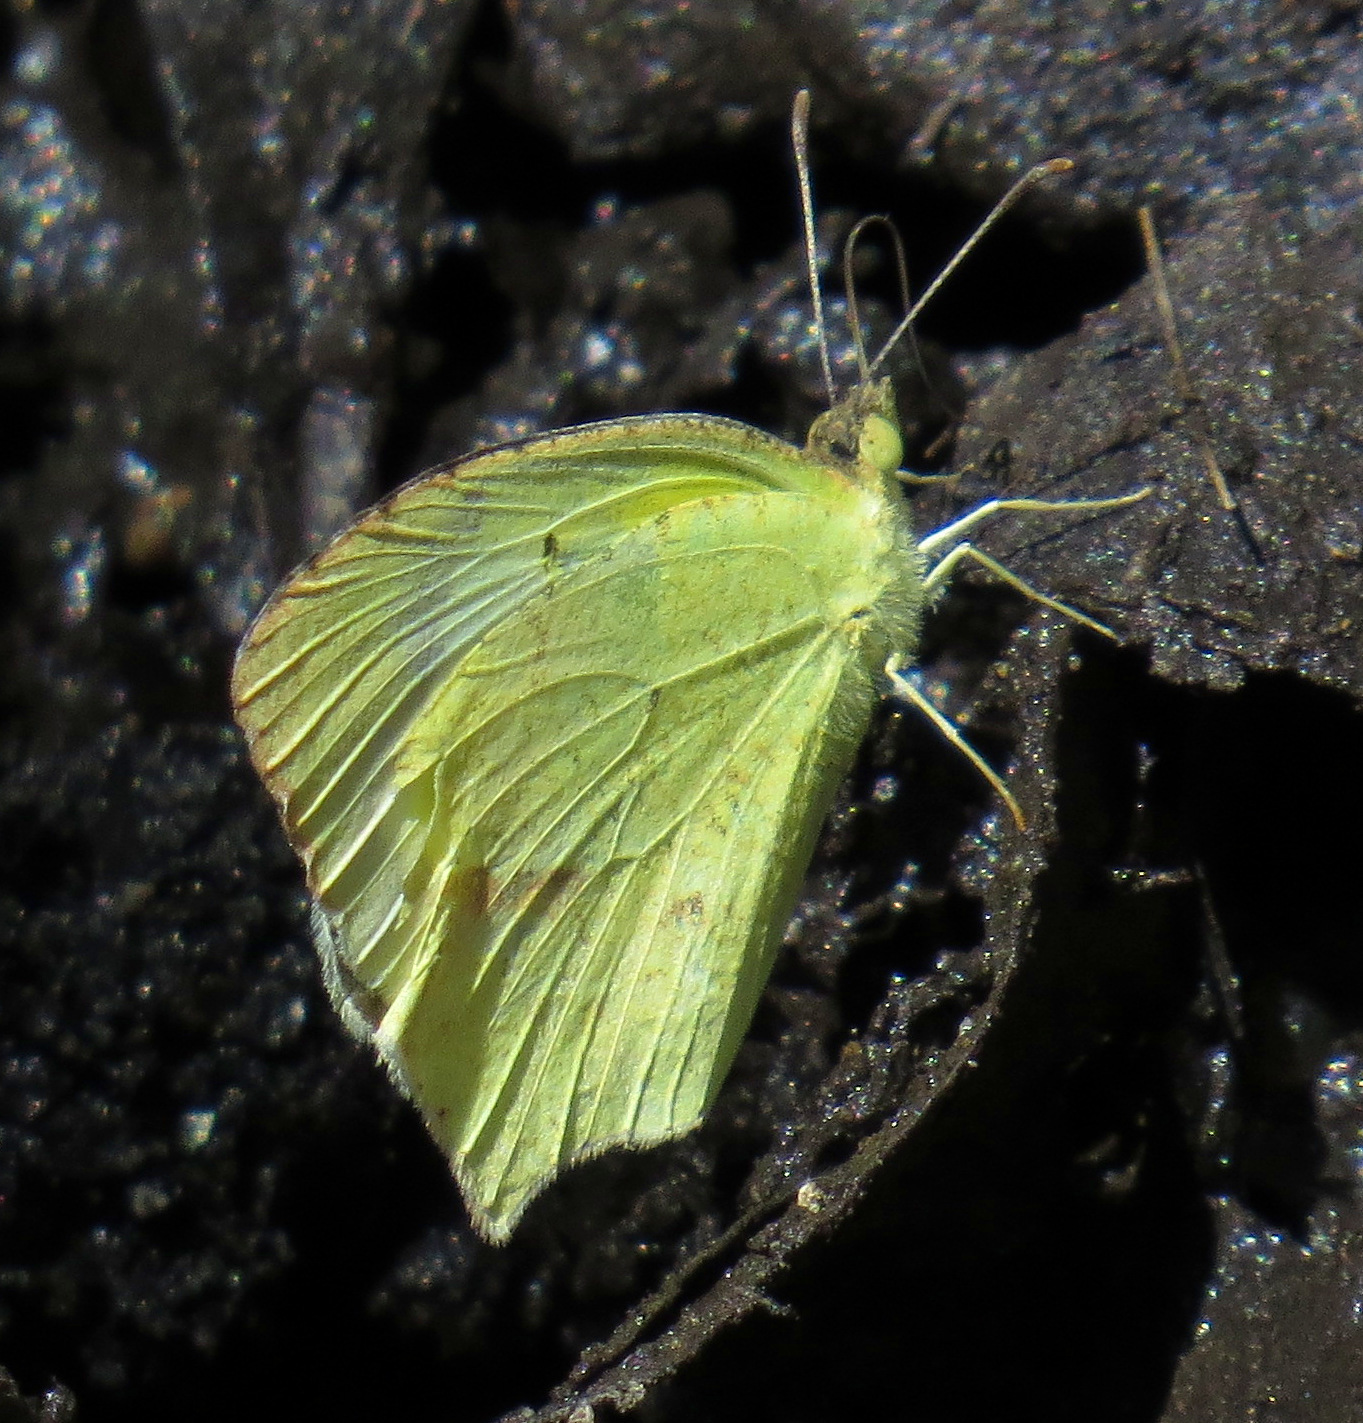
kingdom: Animalia
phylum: Arthropoda
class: Insecta
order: Lepidoptera
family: Pieridae
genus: Abaeis
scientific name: Abaeis mexicana
